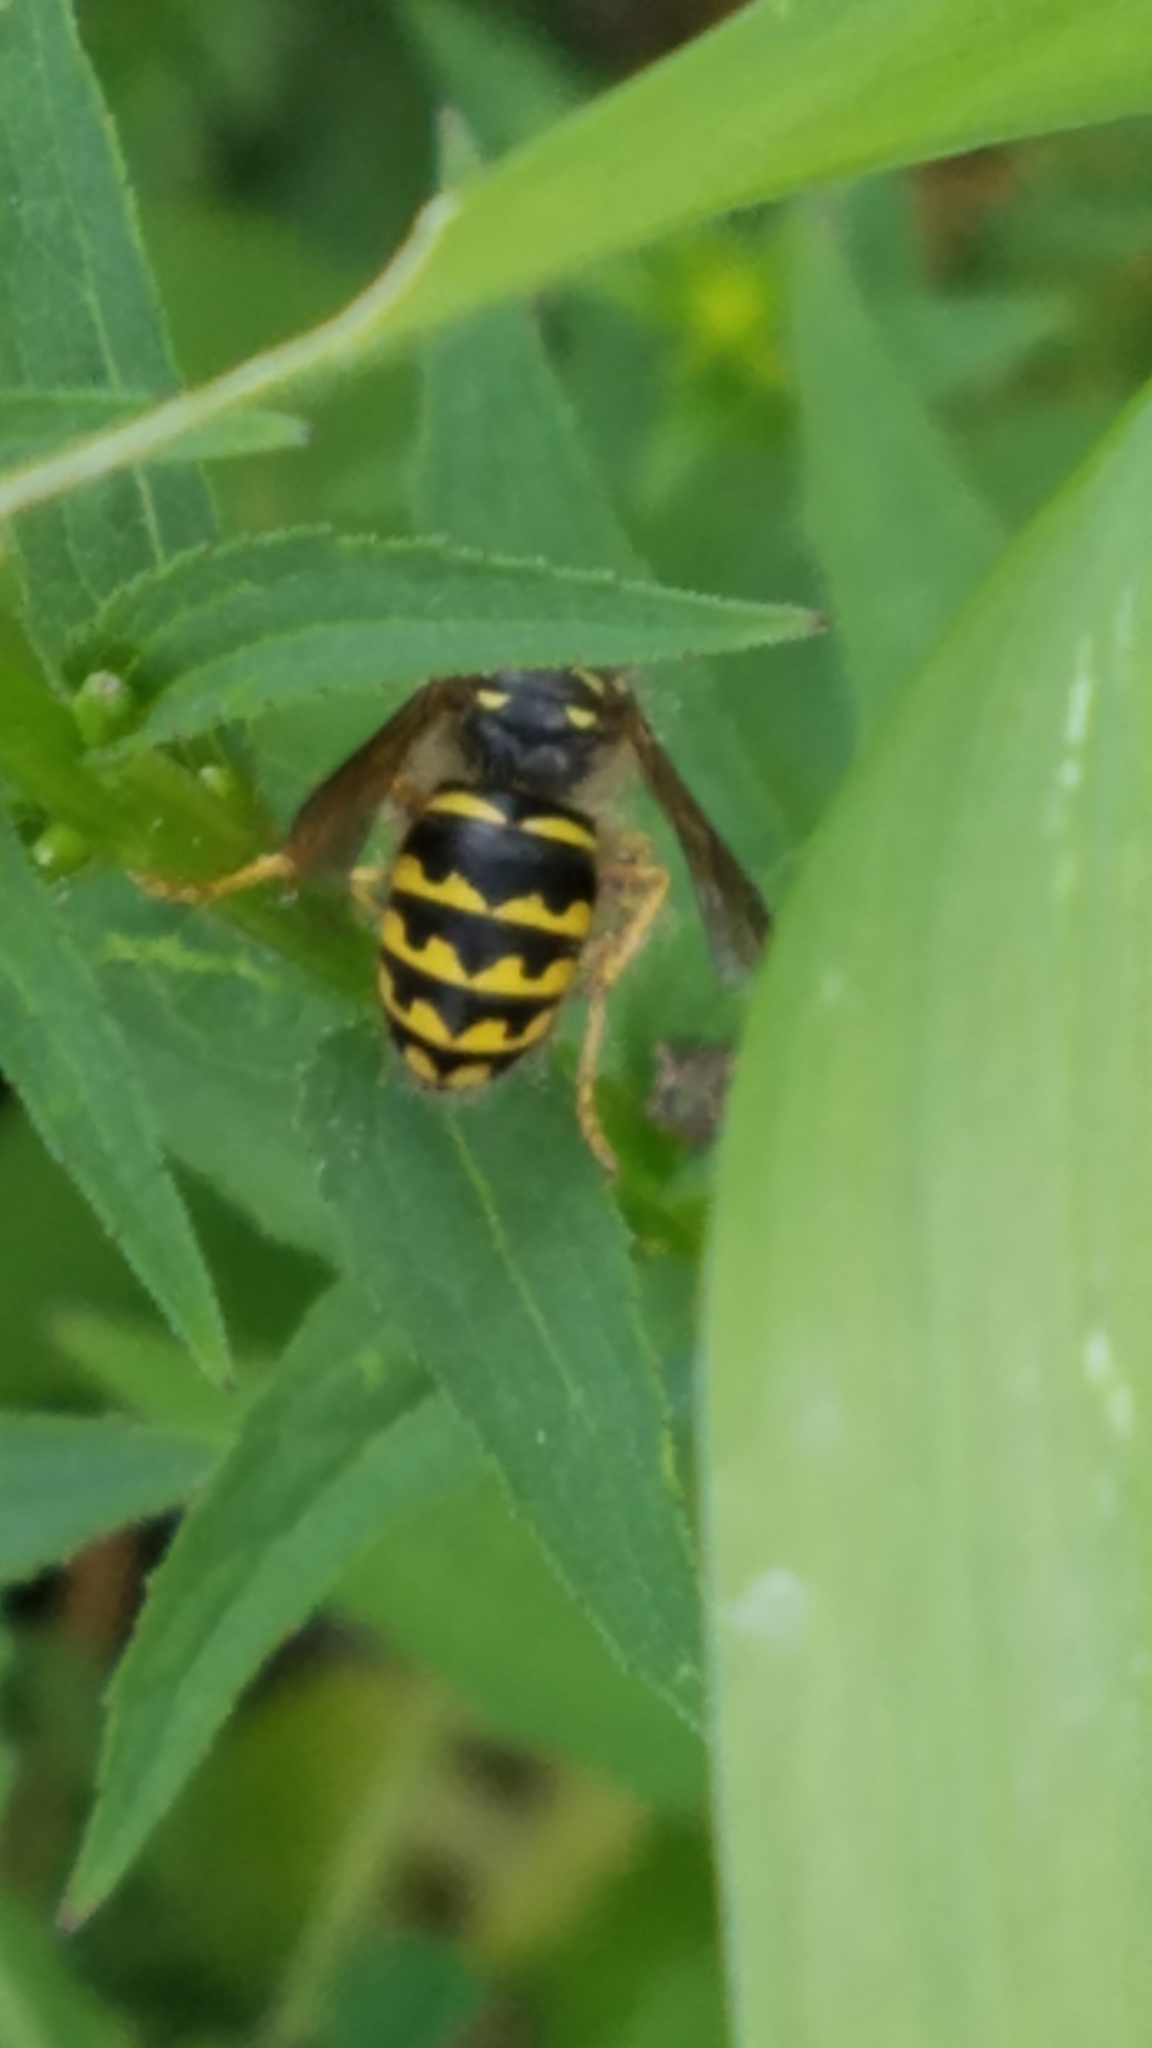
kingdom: Animalia
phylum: Arthropoda
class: Insecta
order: Hymenoptera
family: Vespidae
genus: Dolichovespula
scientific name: Dolichovespula arenaria
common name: Aerial yellowjacket
